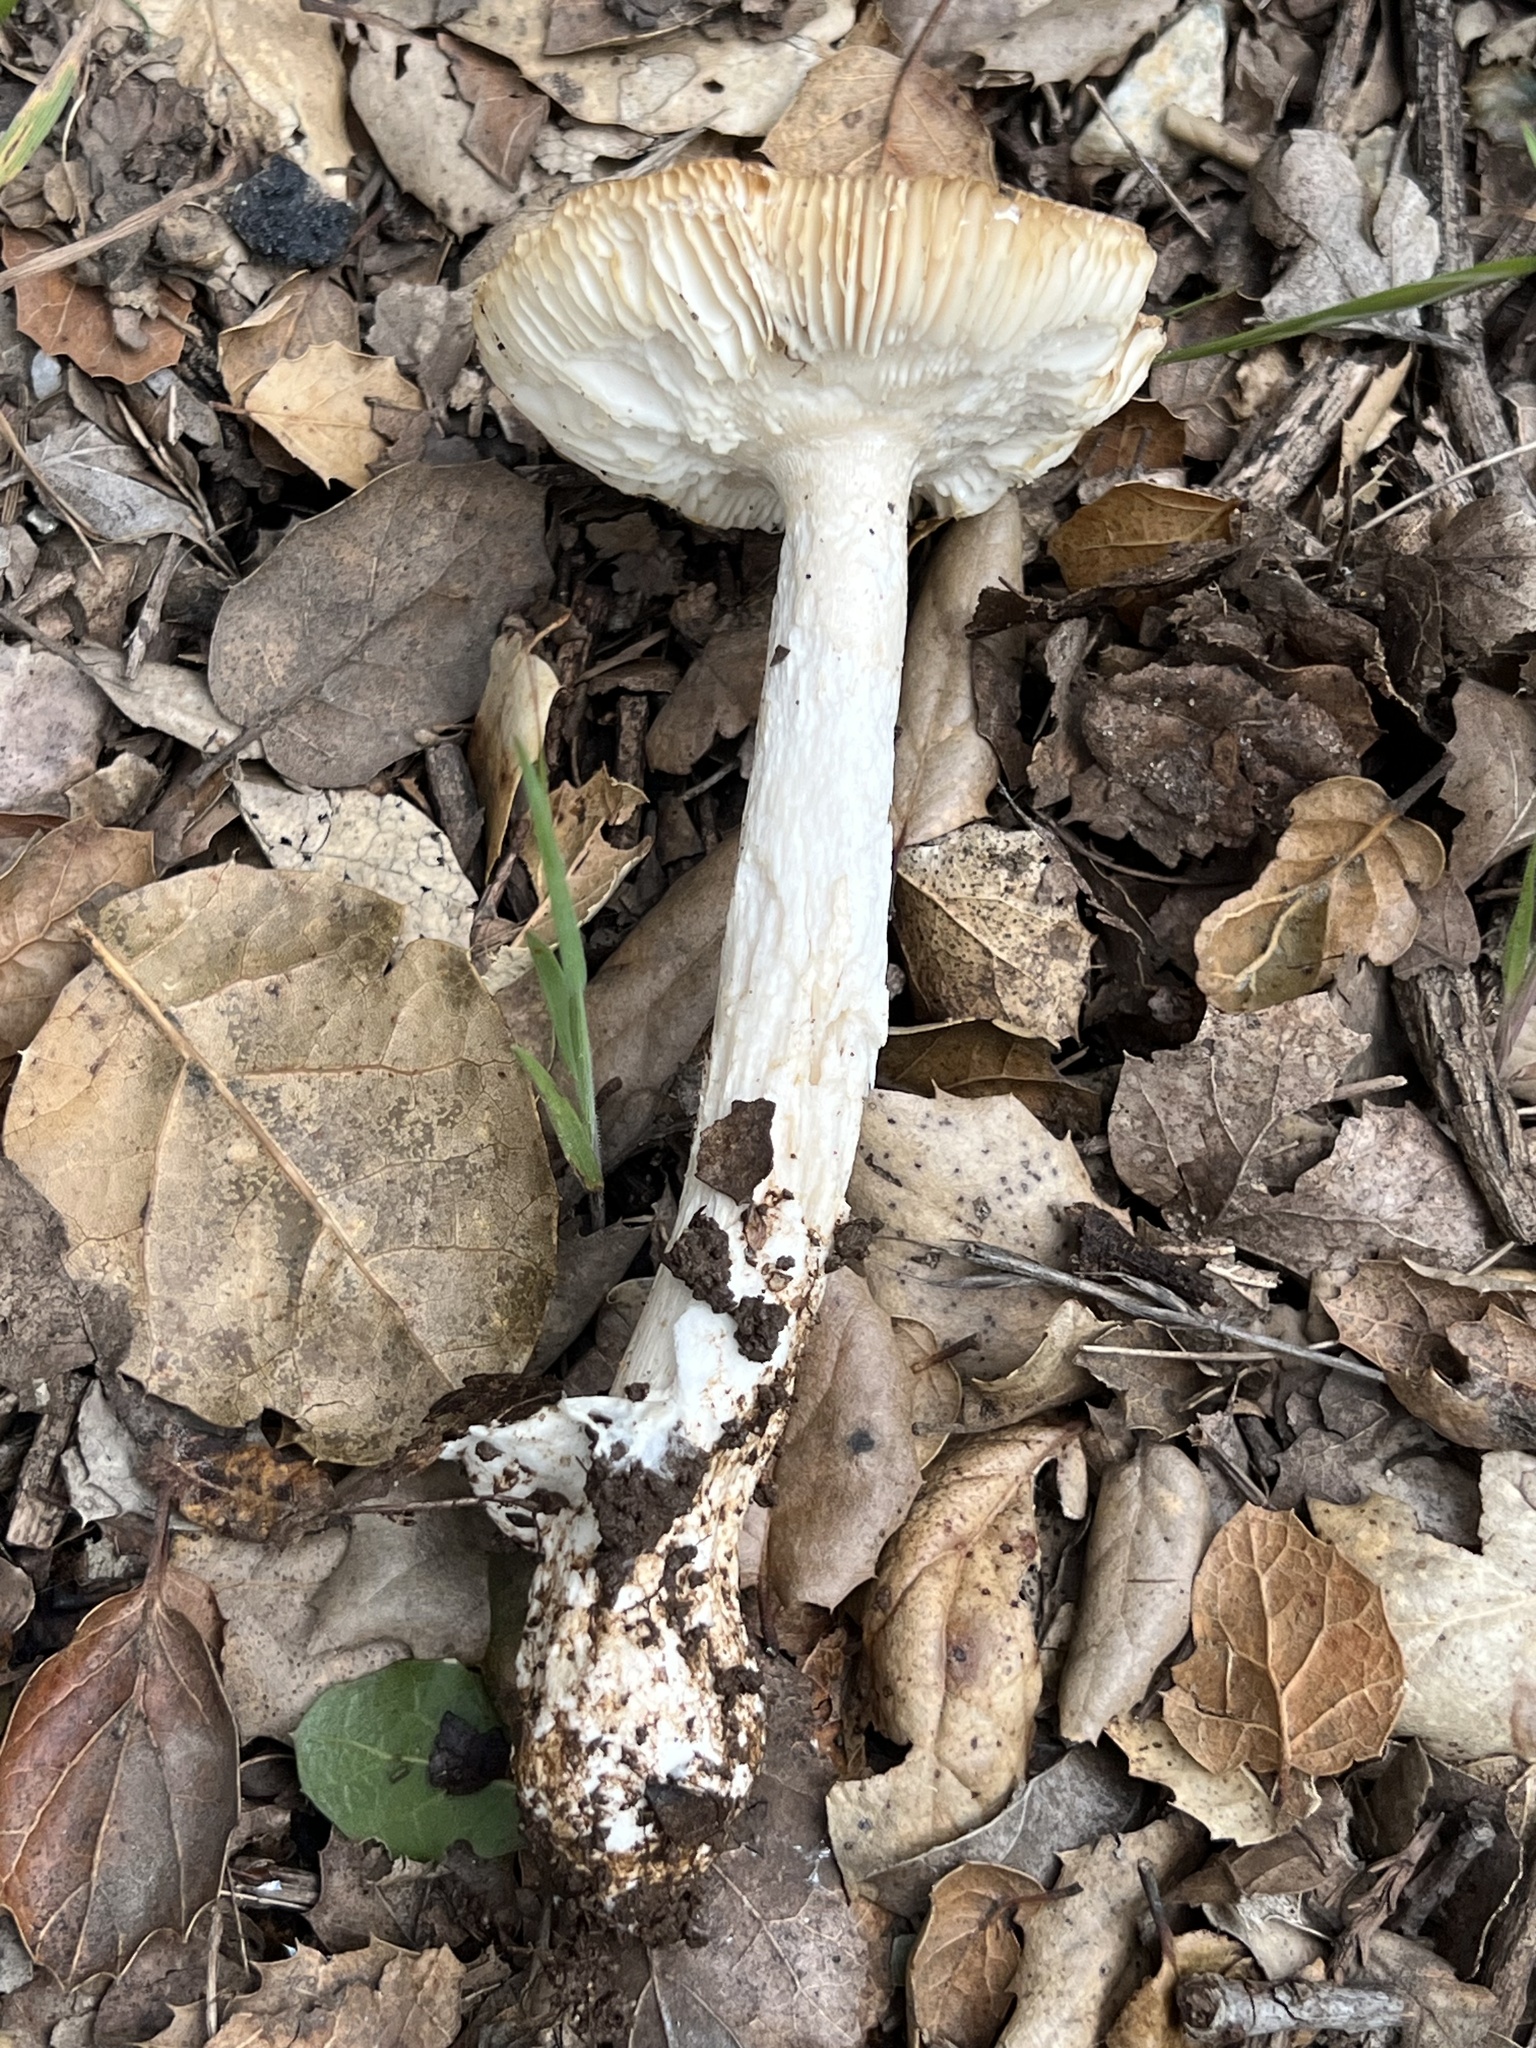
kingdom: Fungi
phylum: Basidiomycota
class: Agaricomycetes
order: Agaricales
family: Amanitaceae
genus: Amanita
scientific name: Amanita velosa
